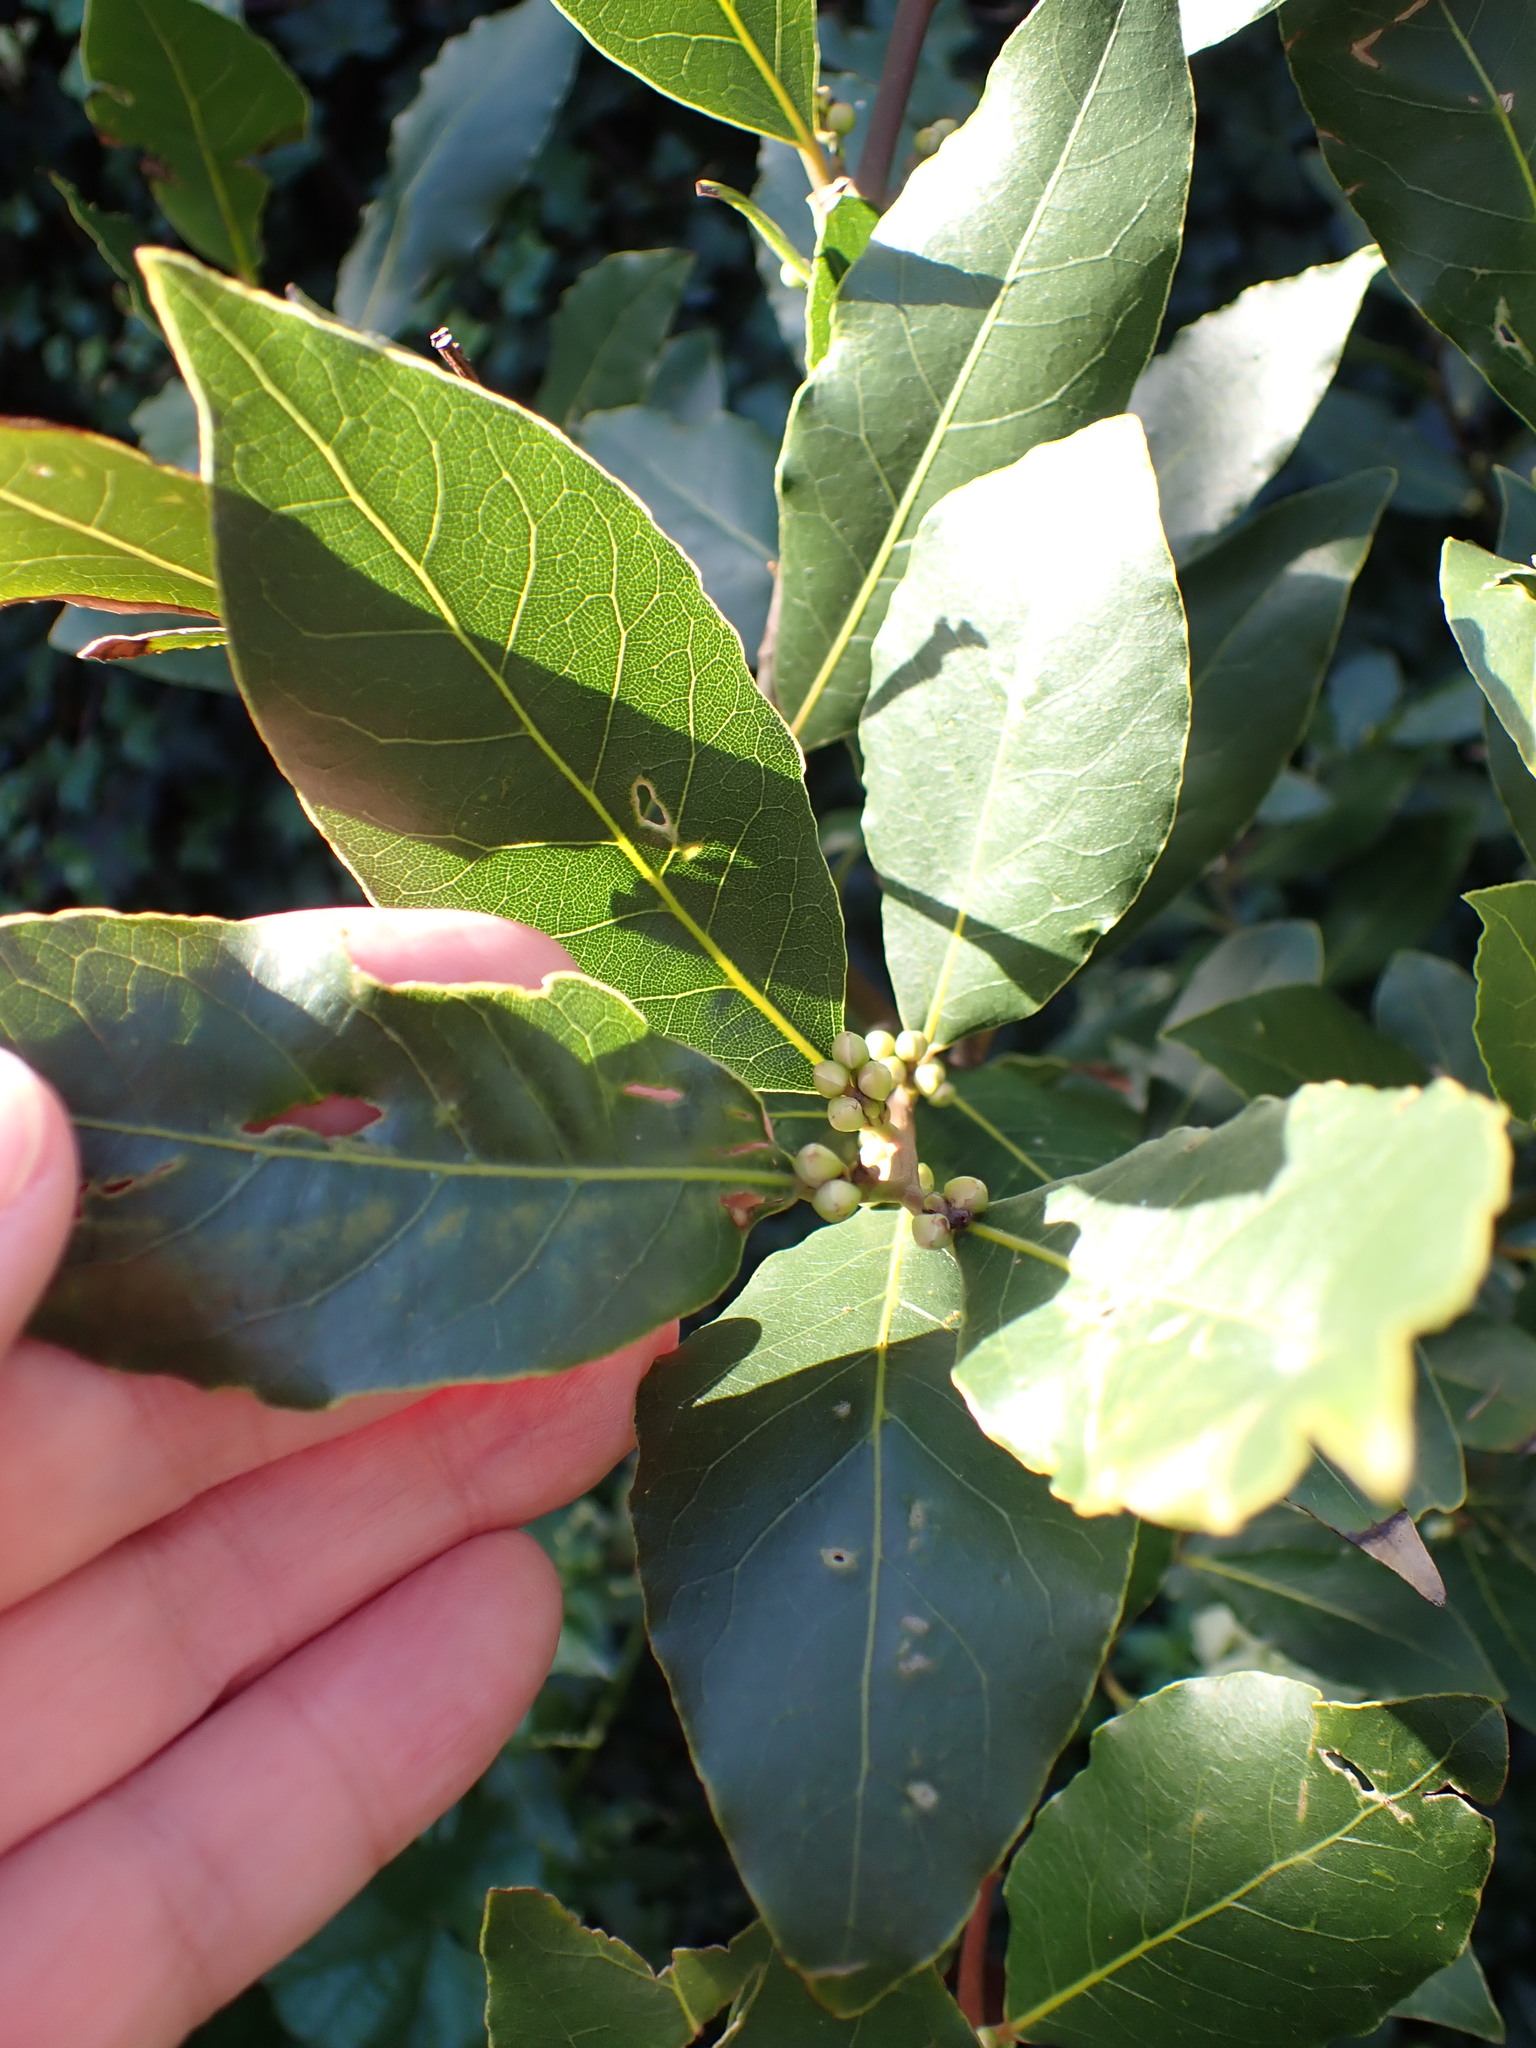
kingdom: Plantae
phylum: Tracheophyta
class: Magnoliopsida
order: Laurales
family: Lauraceae
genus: Laurus
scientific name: Laurus nobilis
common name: Bay
